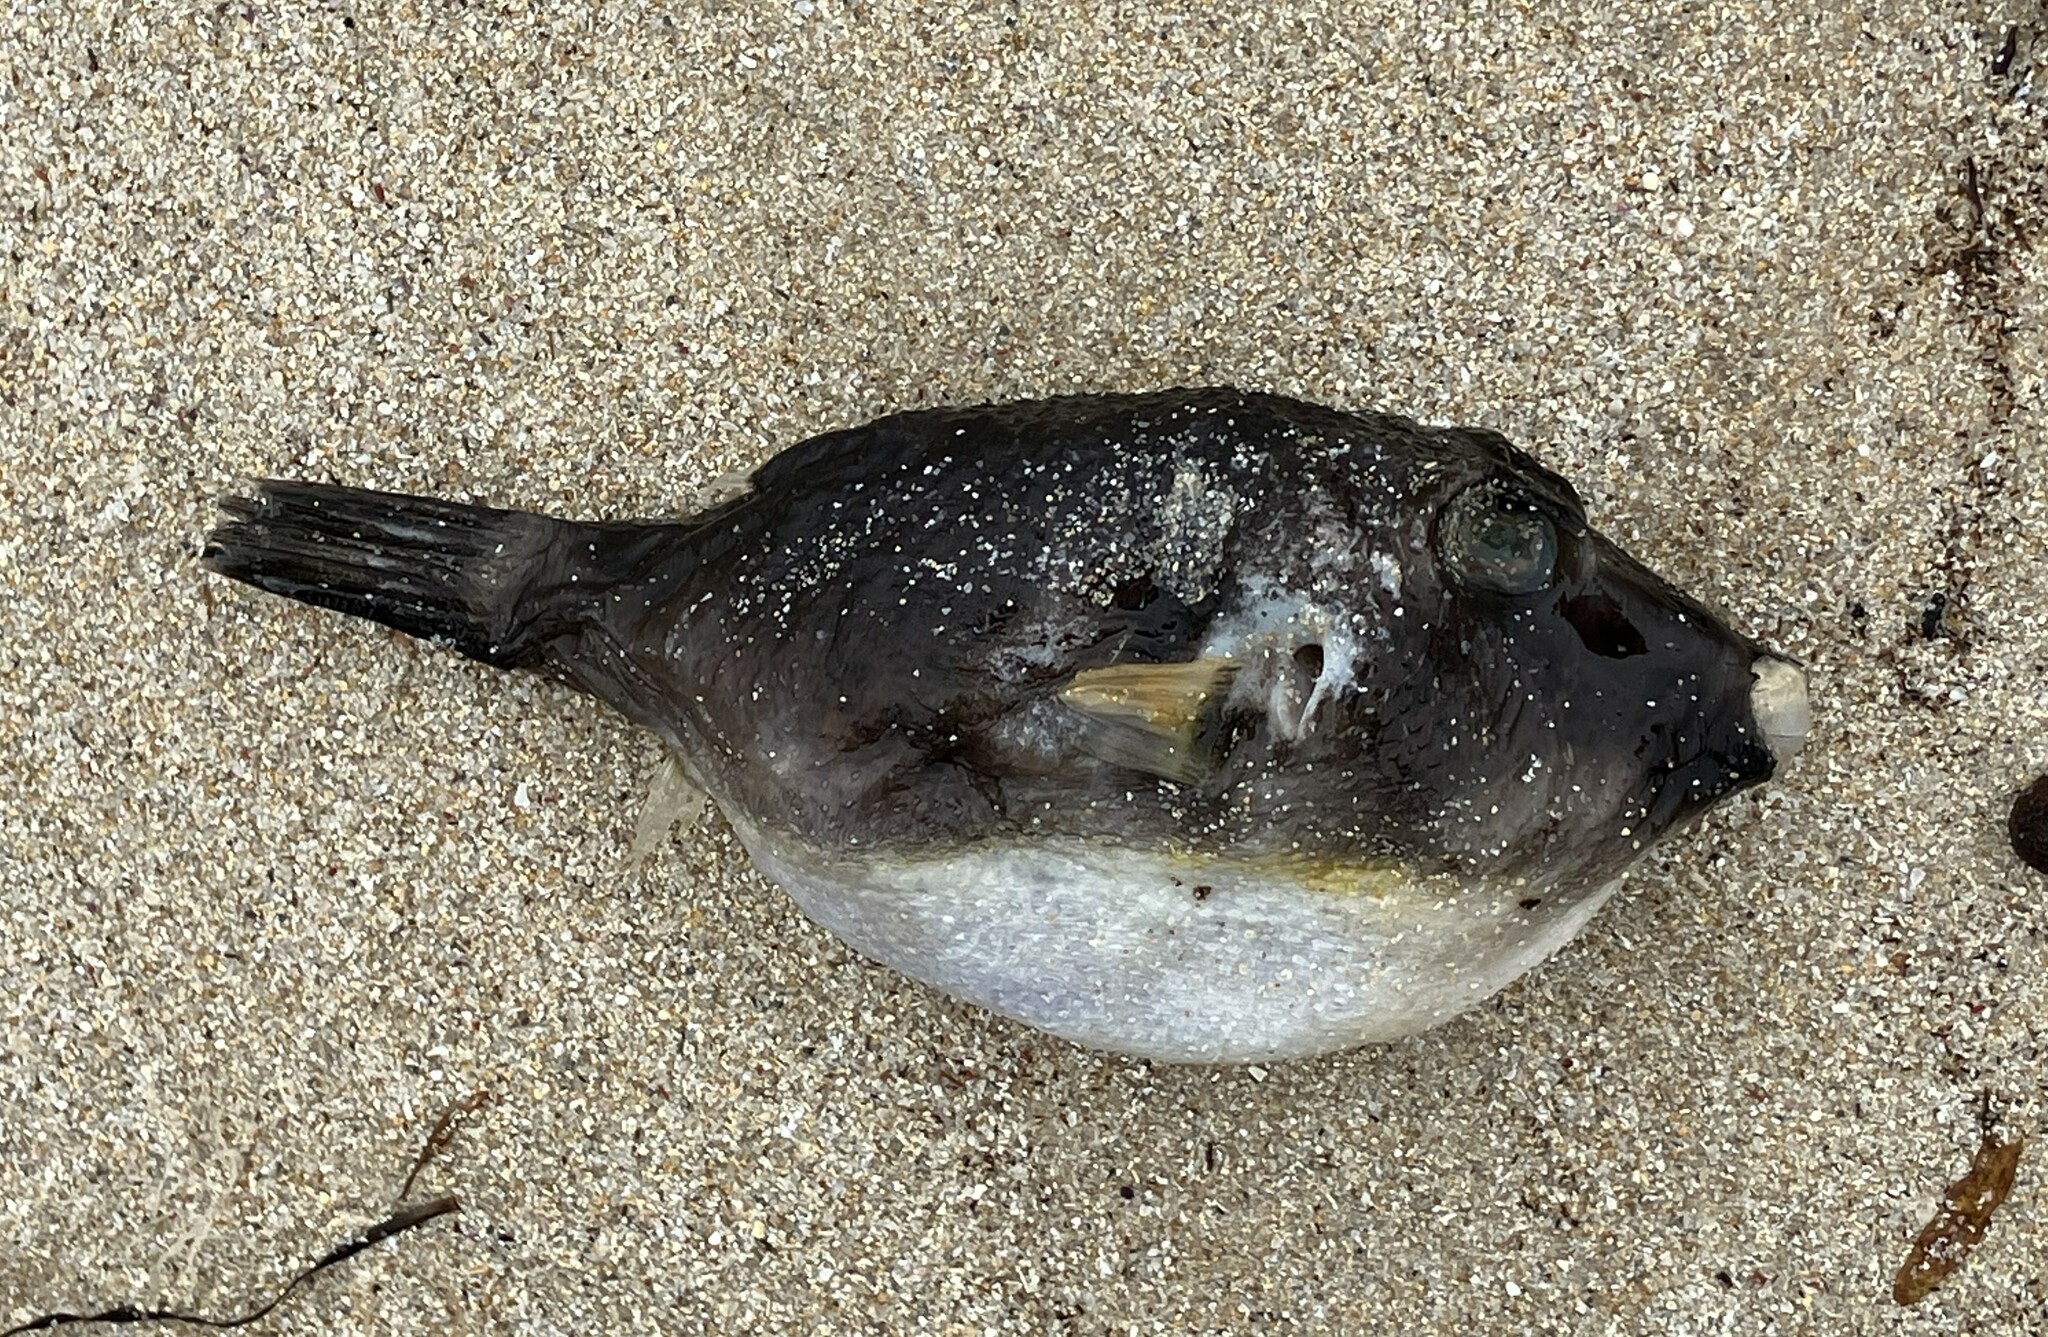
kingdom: Animalia
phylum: Chordata
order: Tetraodontiformes
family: Tetraodontidae
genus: Omegophora
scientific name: Omegophora cyanopunctata
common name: Bluespotted toadfish
